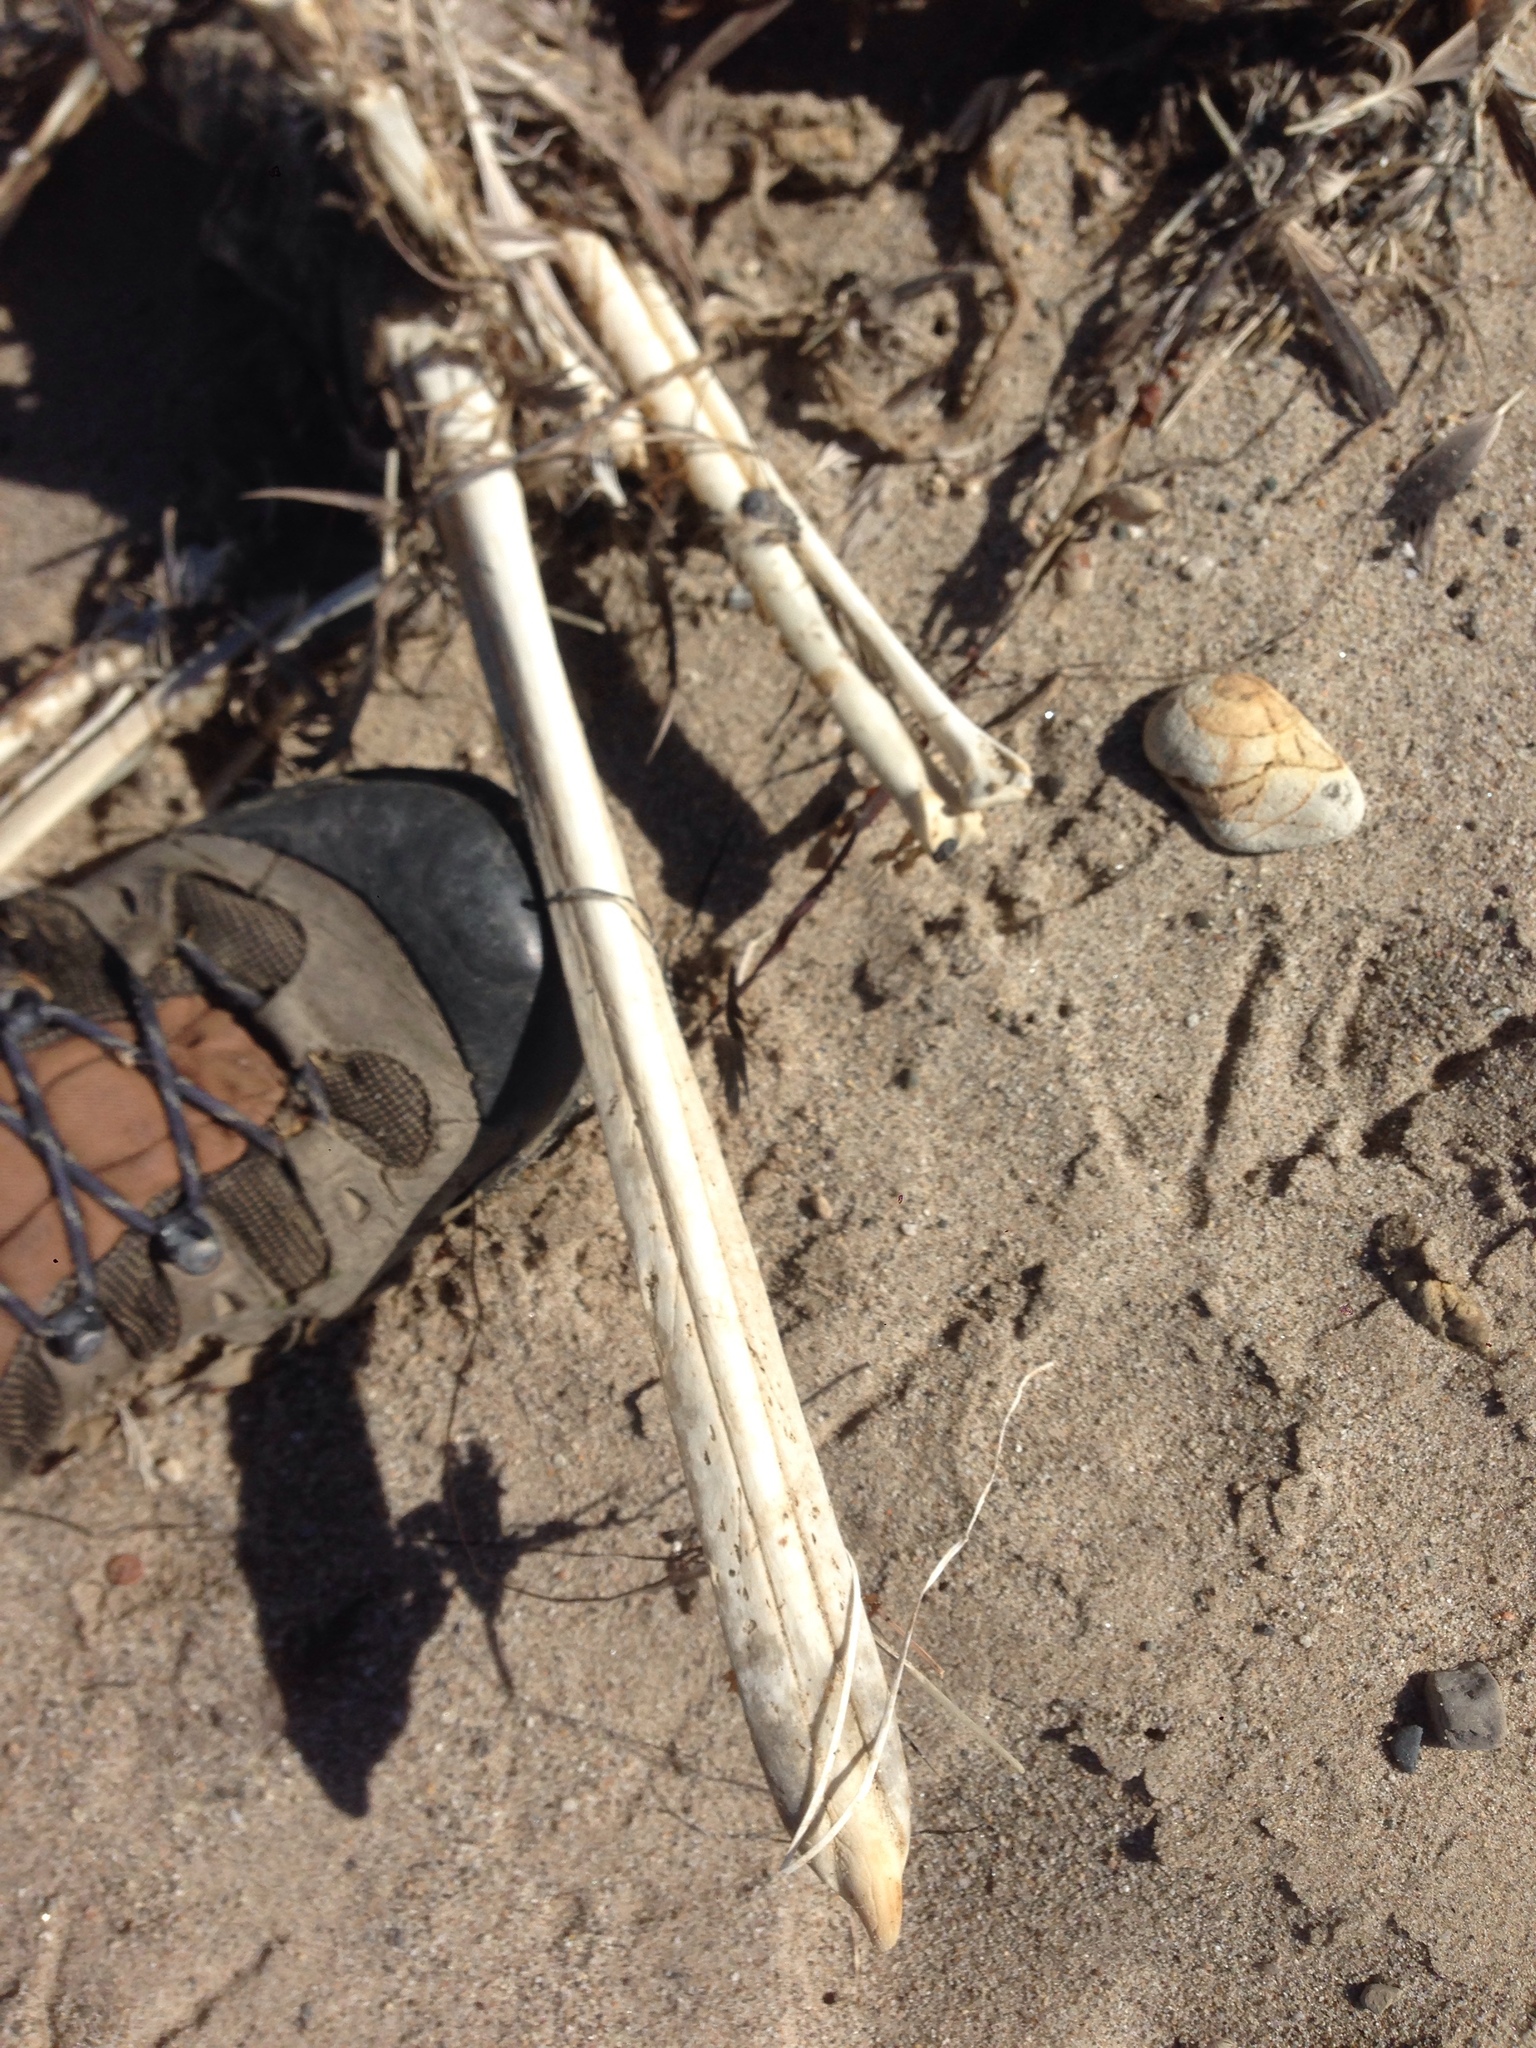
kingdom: Animalia
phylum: Chordata
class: Aves
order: Pelecaniformes
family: Pelecanidae
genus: Pelecanus
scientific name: Pelecanus occidentalis
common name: Brown pelican
